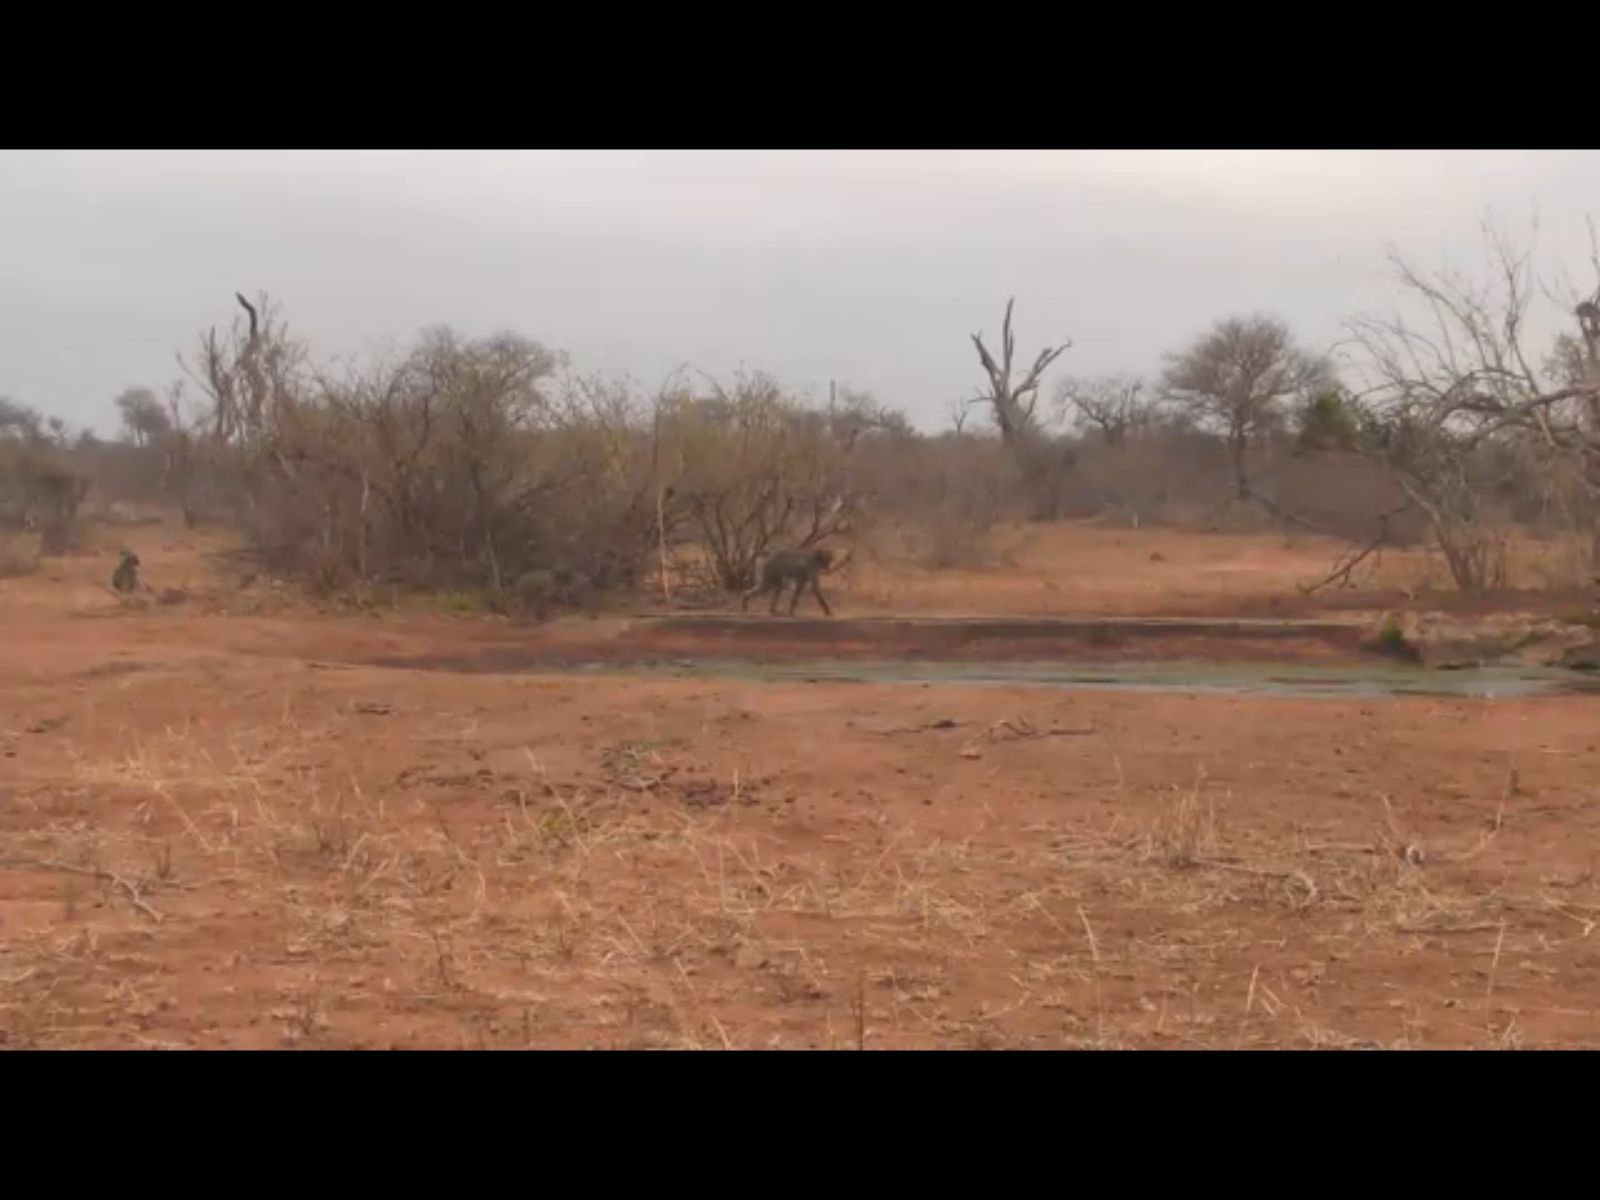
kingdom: Animalia
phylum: Chordata
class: Mammalia
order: Primates
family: Cercopithecidae
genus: Papio
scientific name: Papio ursinus
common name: Chacma baboon
